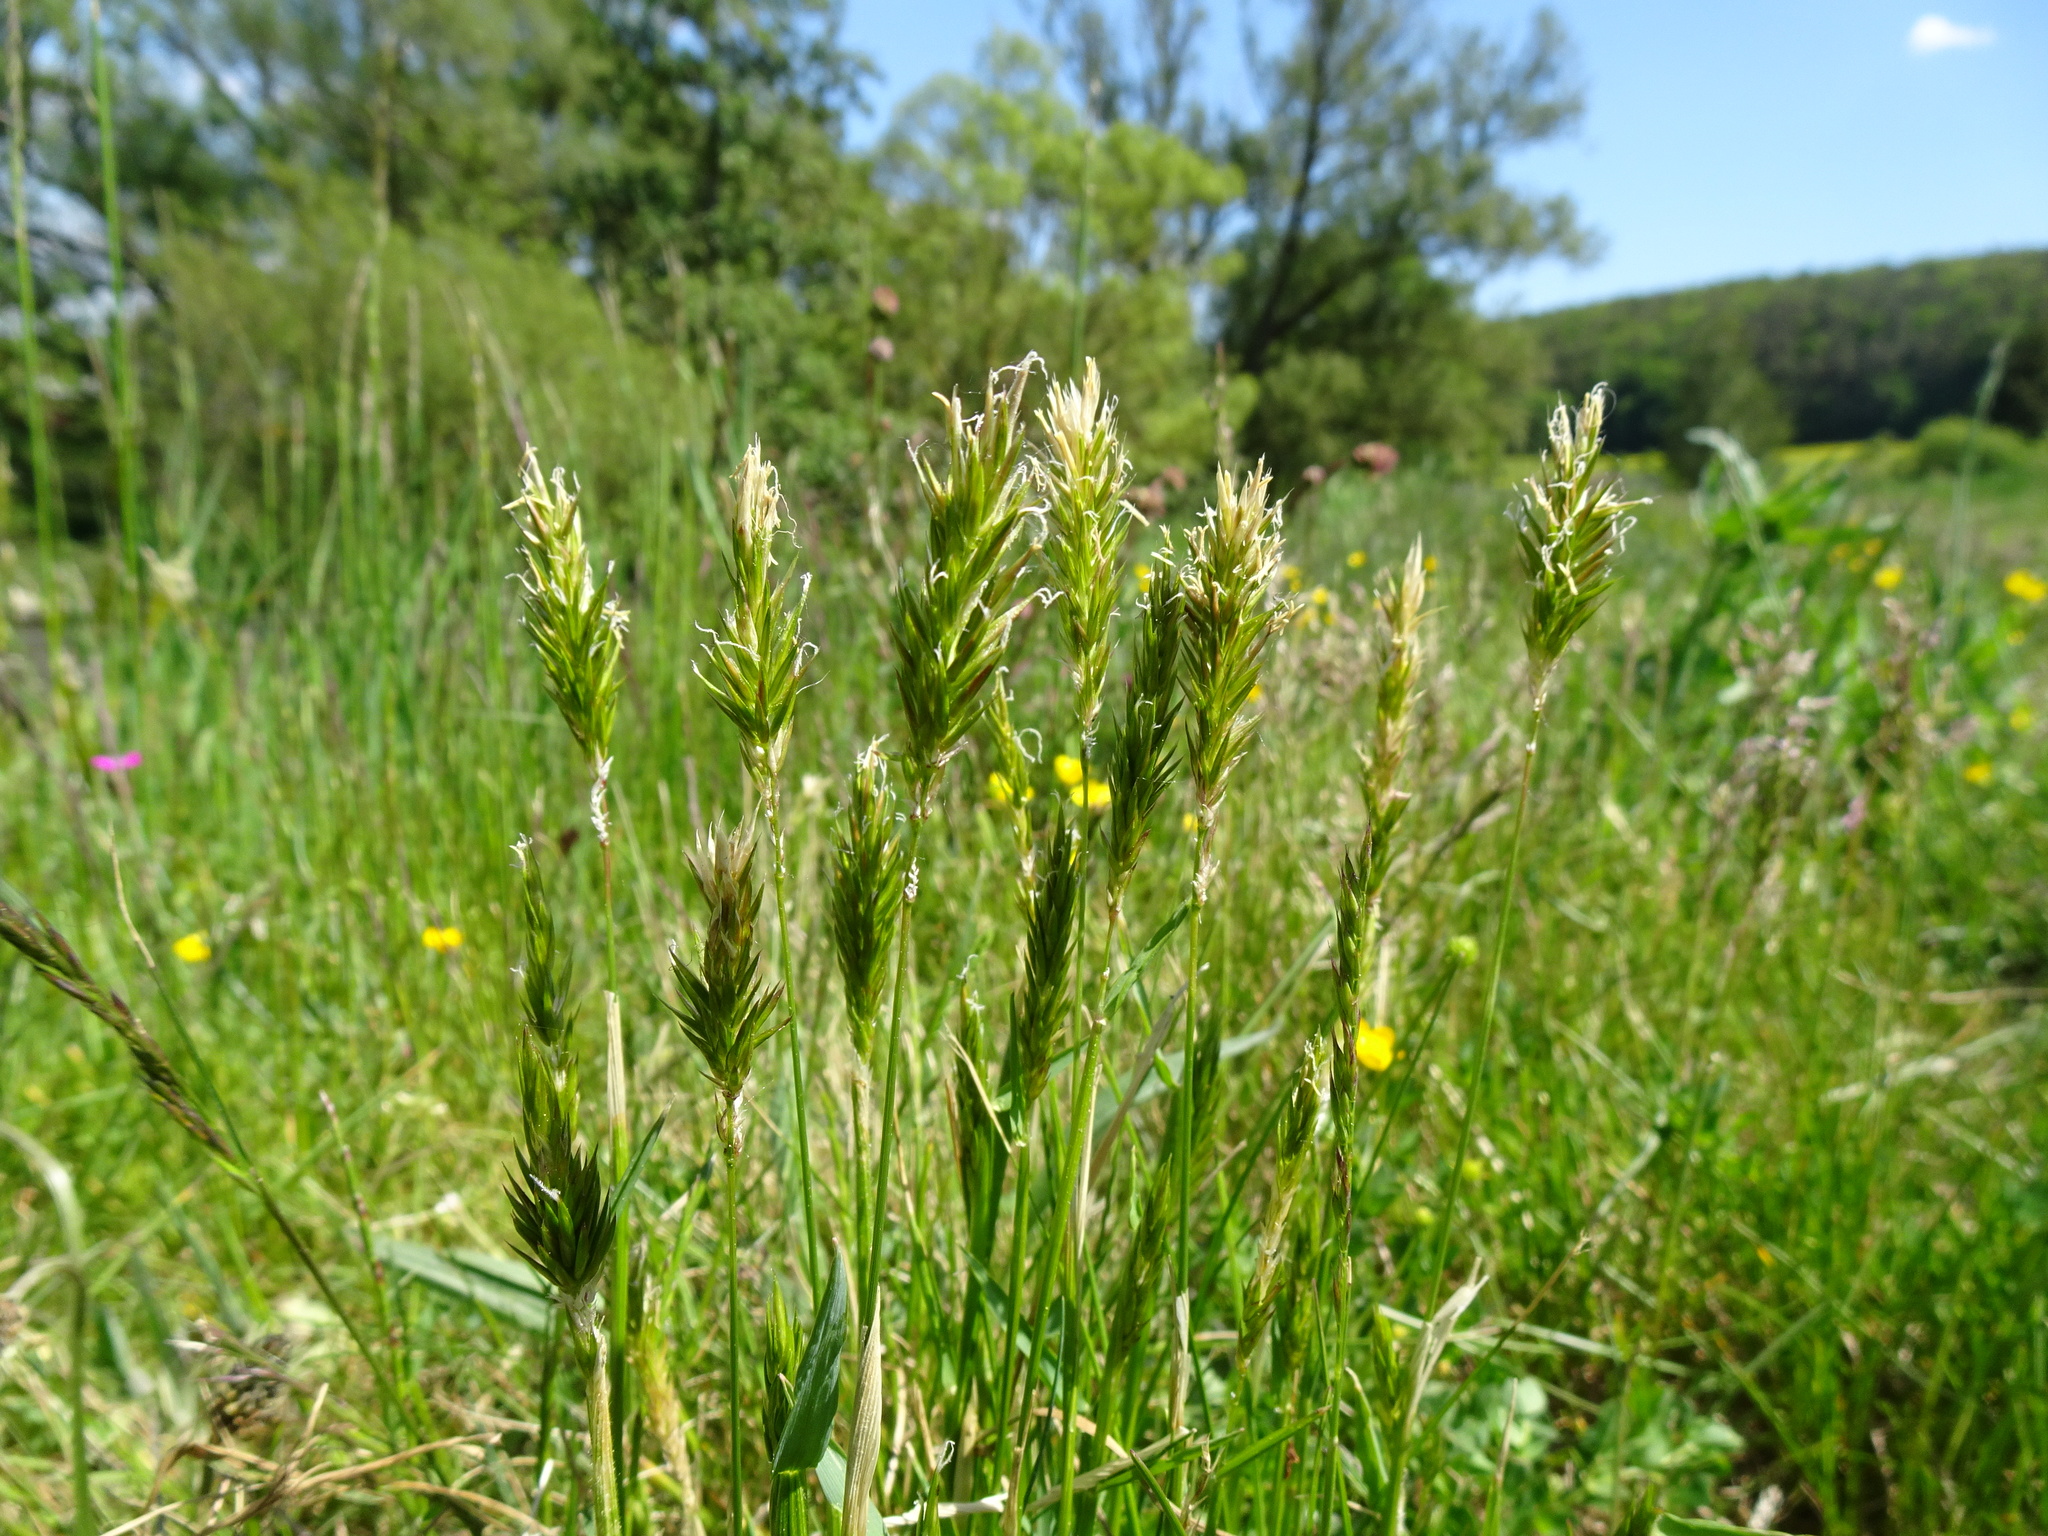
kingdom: Plantae
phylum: Tracheophyta
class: Liliopsida
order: Poales
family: Poaceae
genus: Anthoxanthum
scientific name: Anthoxanthum odoratum
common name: Sweet vernalgrass
